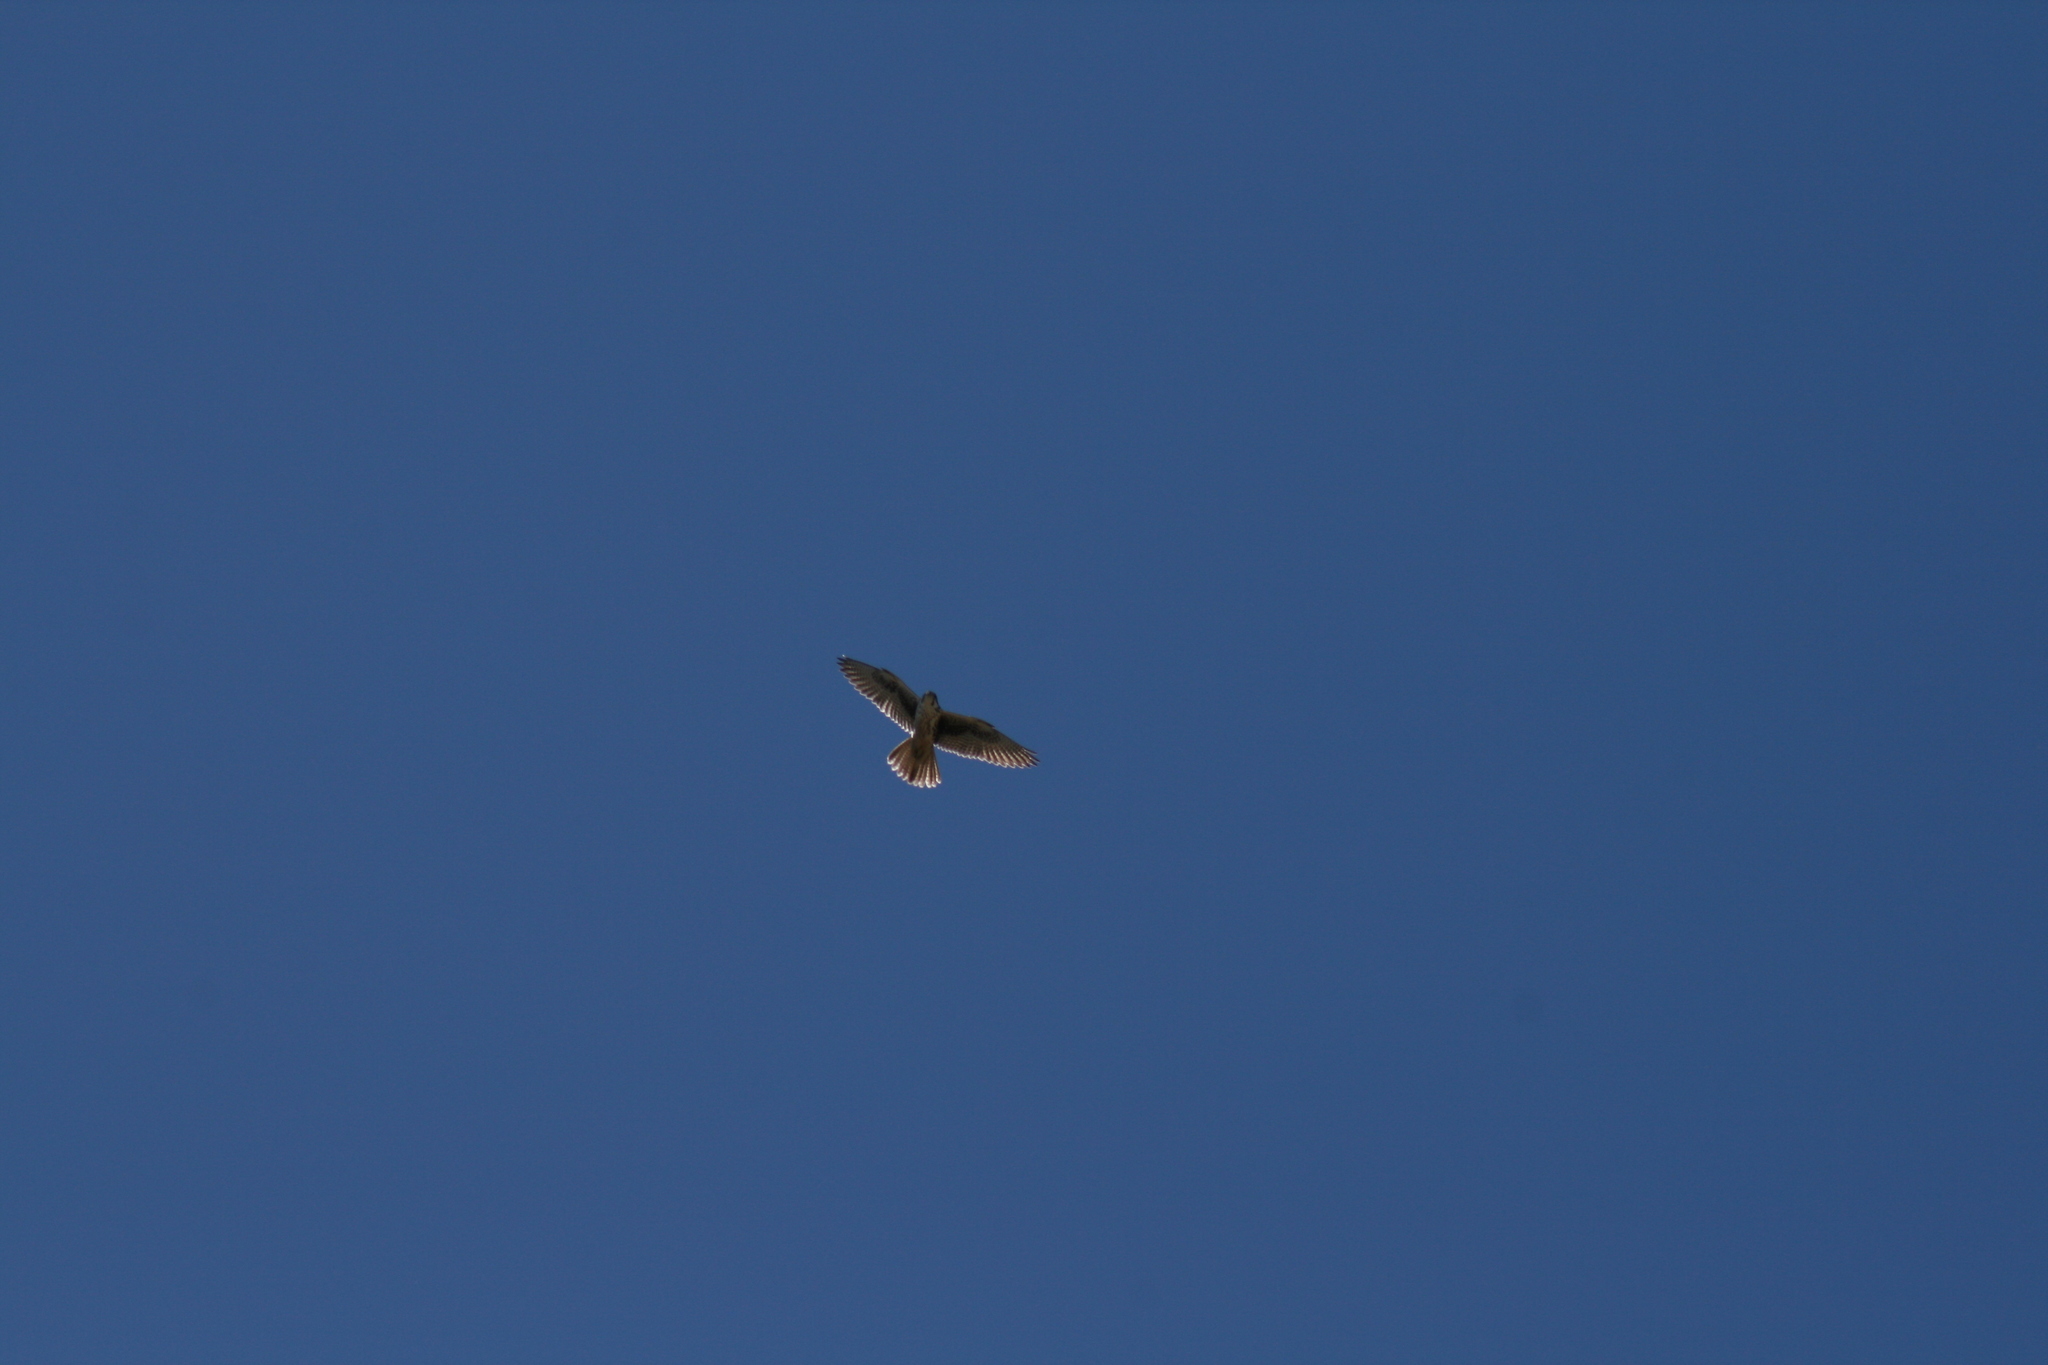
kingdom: Animalia
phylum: Chordata
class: Aves
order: Falconiformes
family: Falconidae
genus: Falco
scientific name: Falco mexicanus
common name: Prairie falcon
